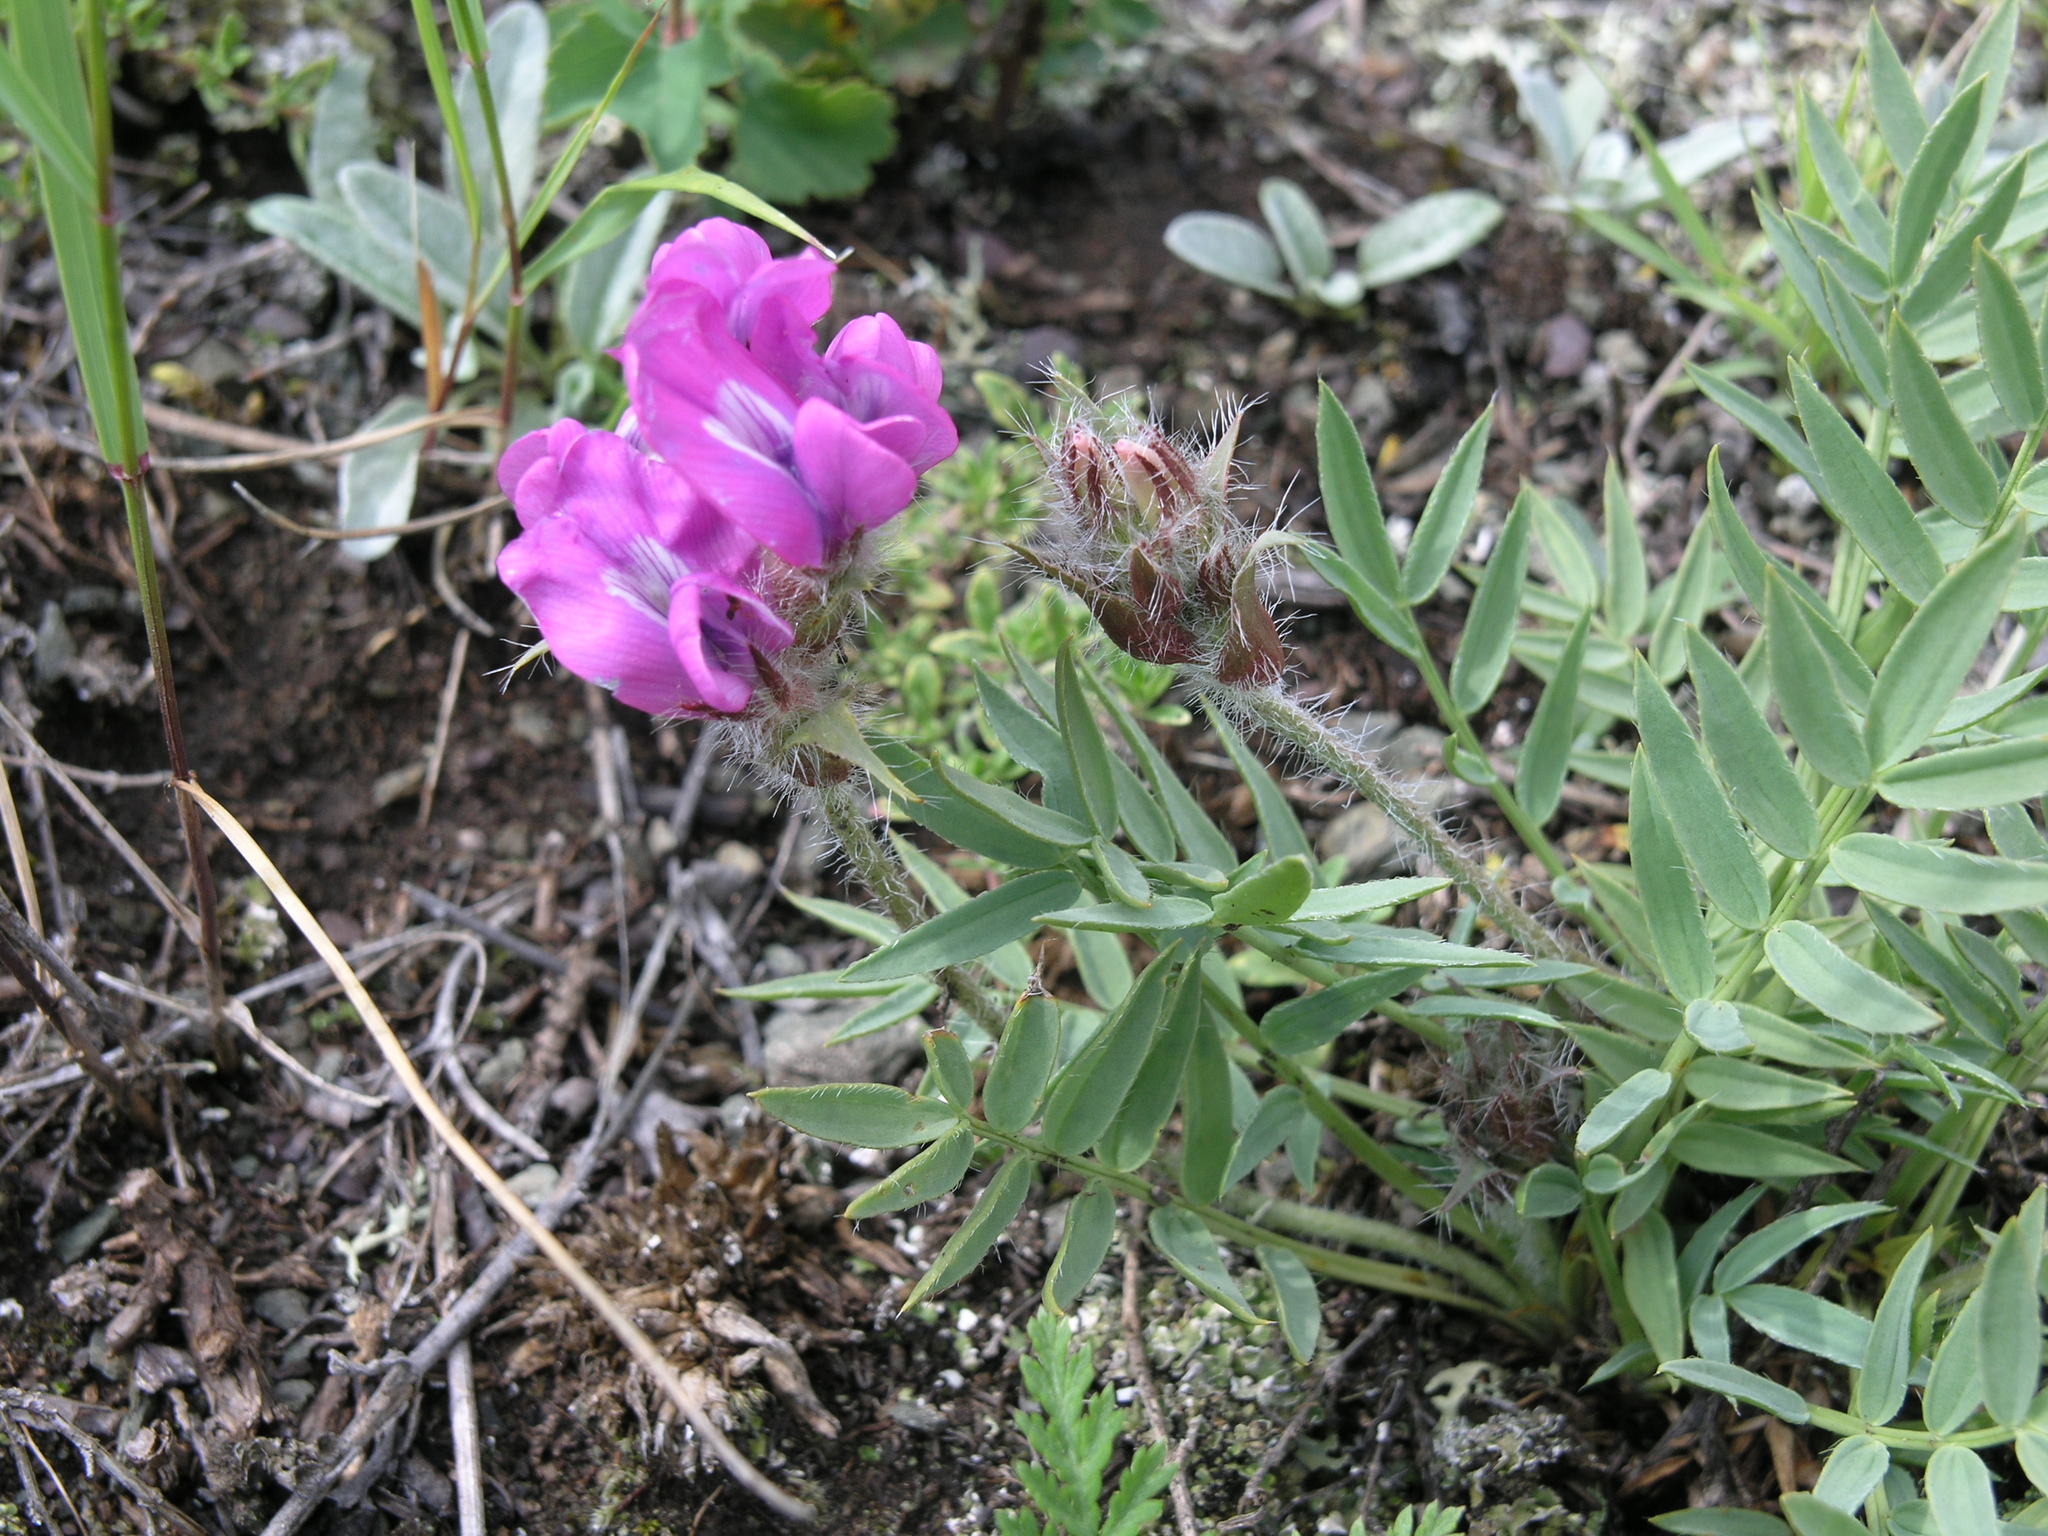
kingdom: Plantae
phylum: Tracheophyta
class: Magnoliopsida
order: Fabales
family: Fabaceae
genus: Oxytropis
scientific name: Oxytropis setosa
